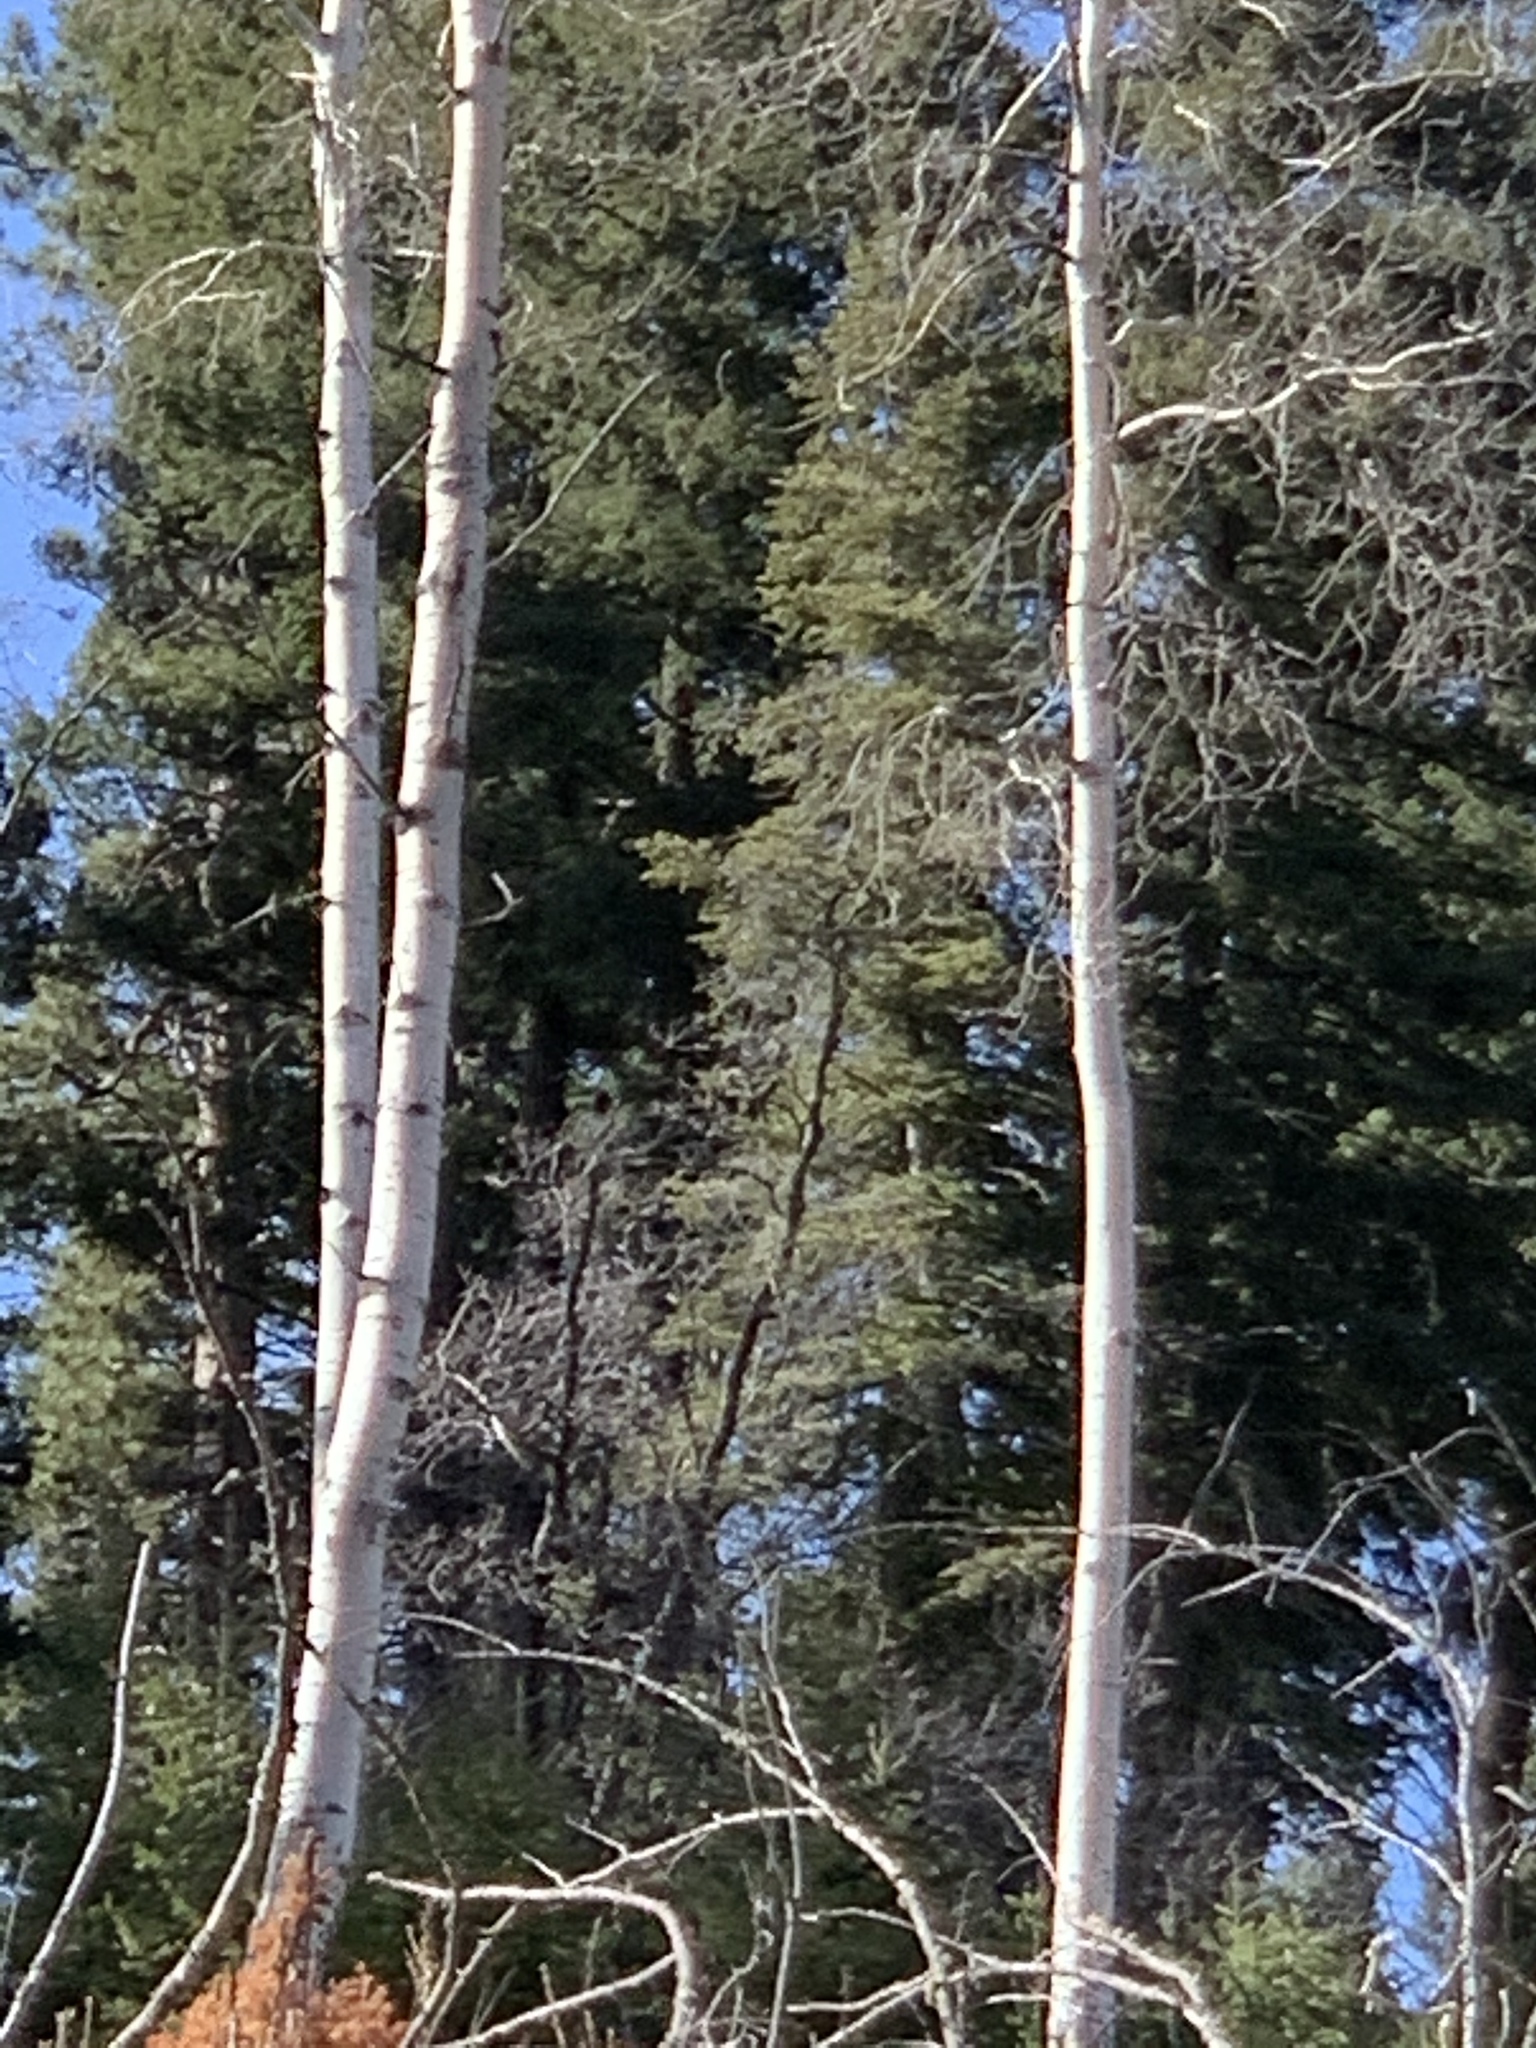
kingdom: Plantae
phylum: Tracheophyta
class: Magnoliopsida
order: Malpighiales
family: Salicaceae
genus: Populus
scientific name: Populus tremuloides
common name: Quaking aspen
